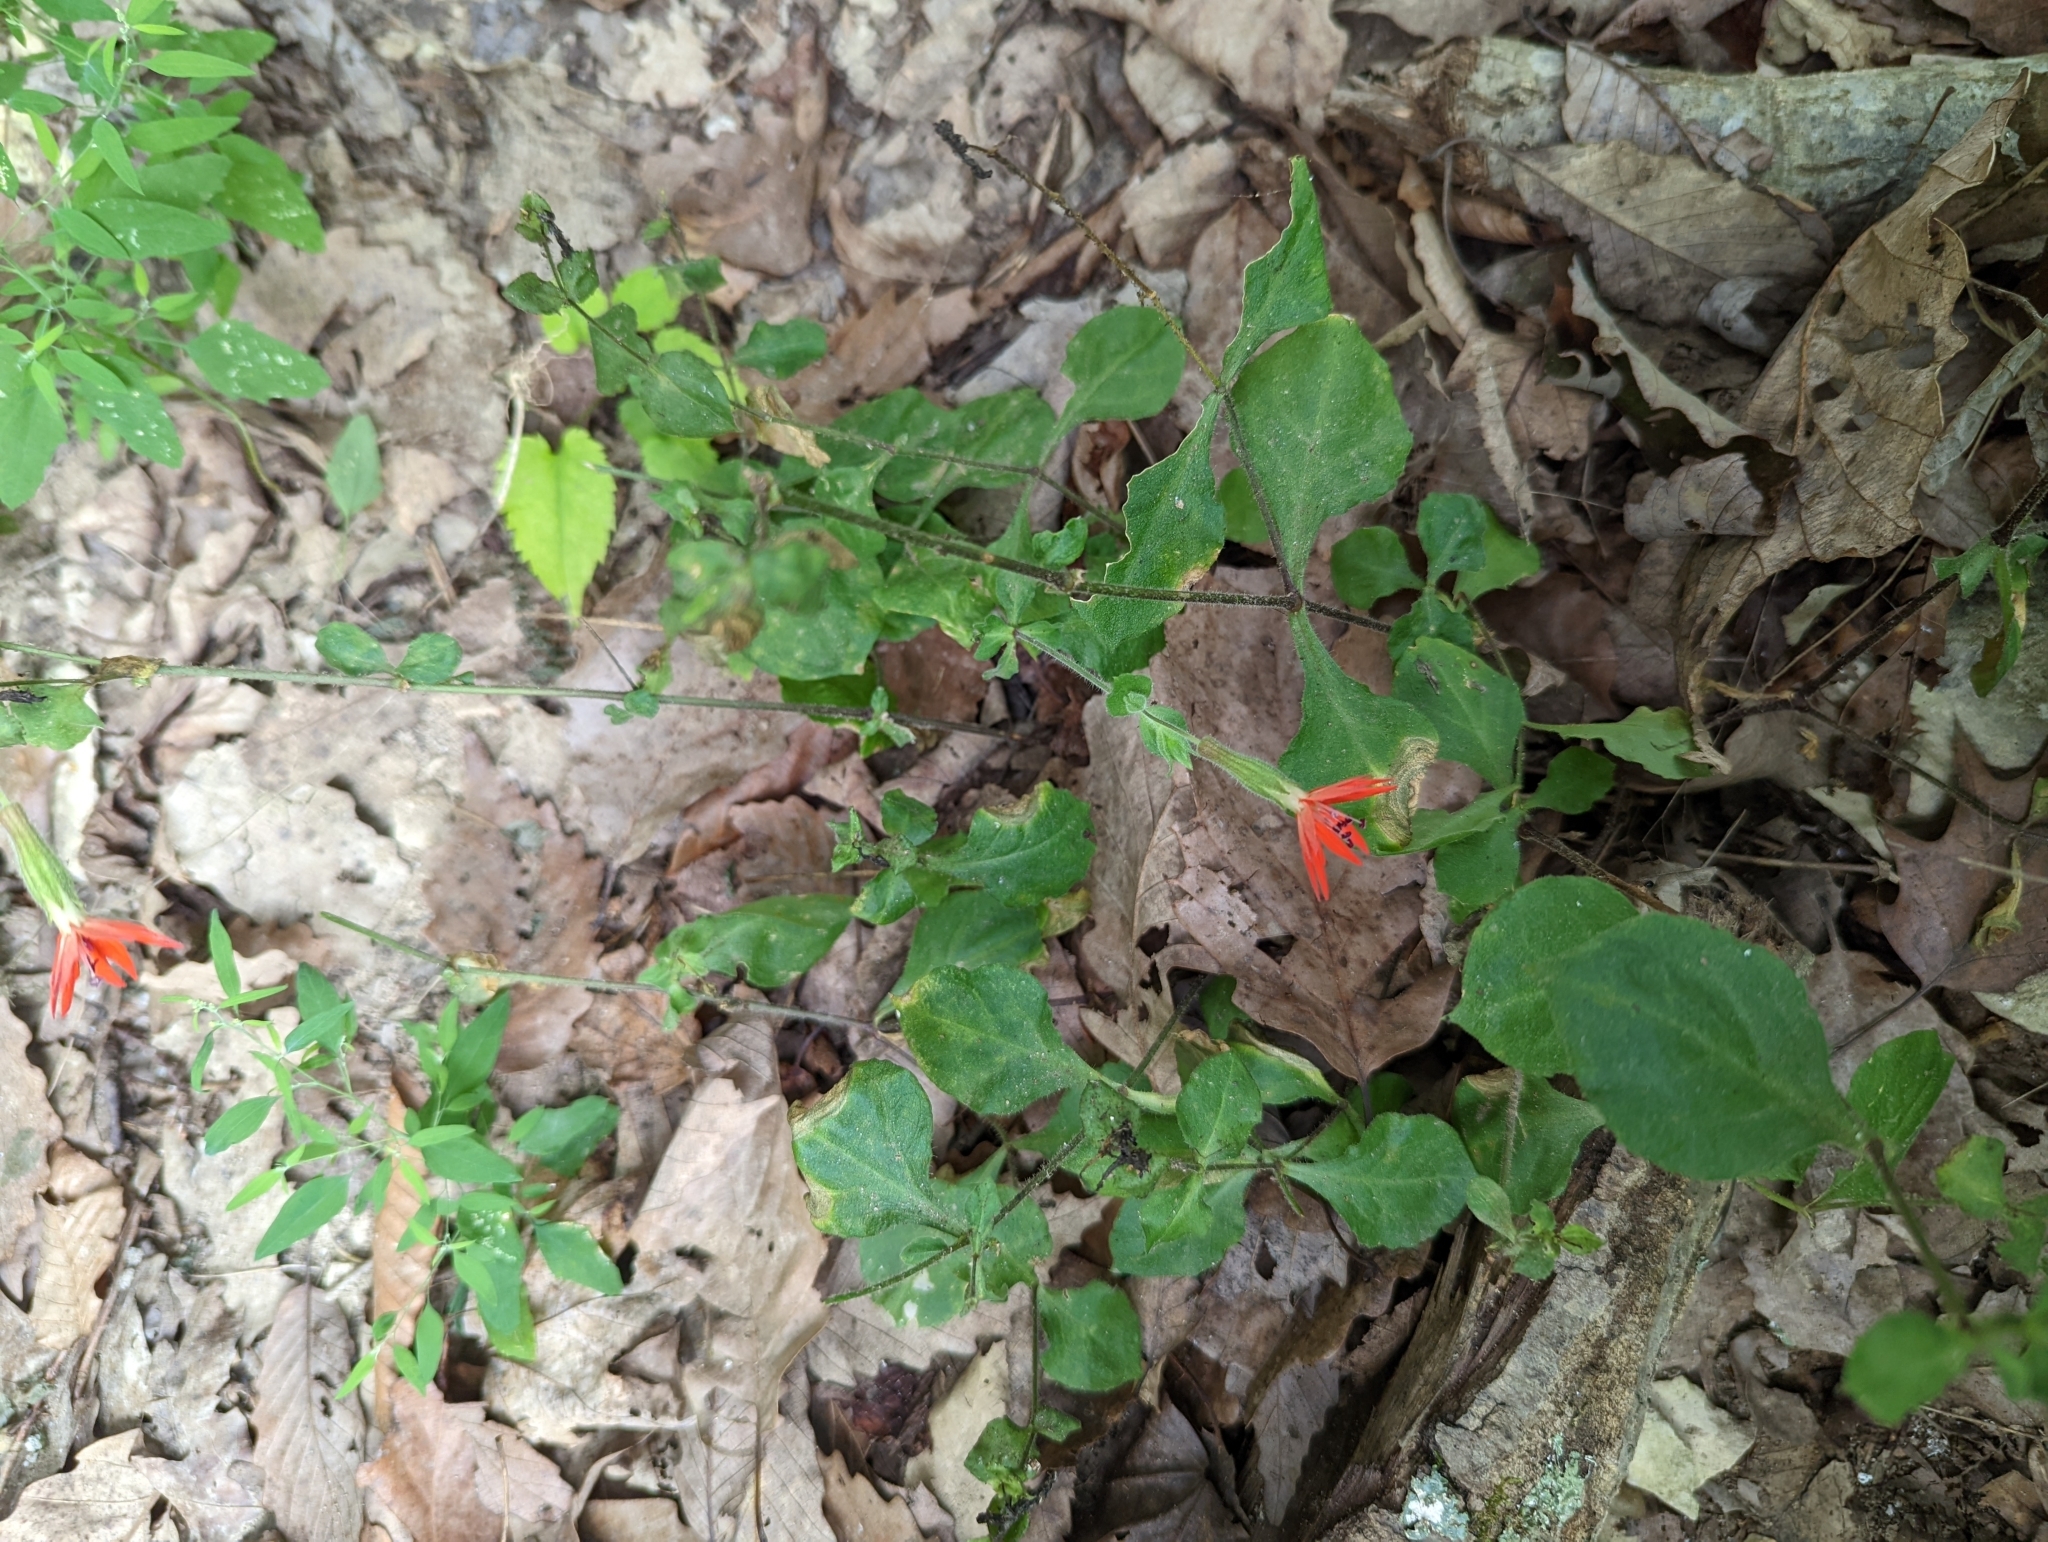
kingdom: Plantae
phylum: Tracheophyta
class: Magnoliopsida
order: Caryophyllales
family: Caryophyllaceae
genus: Silene
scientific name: Silene rotundifolia
